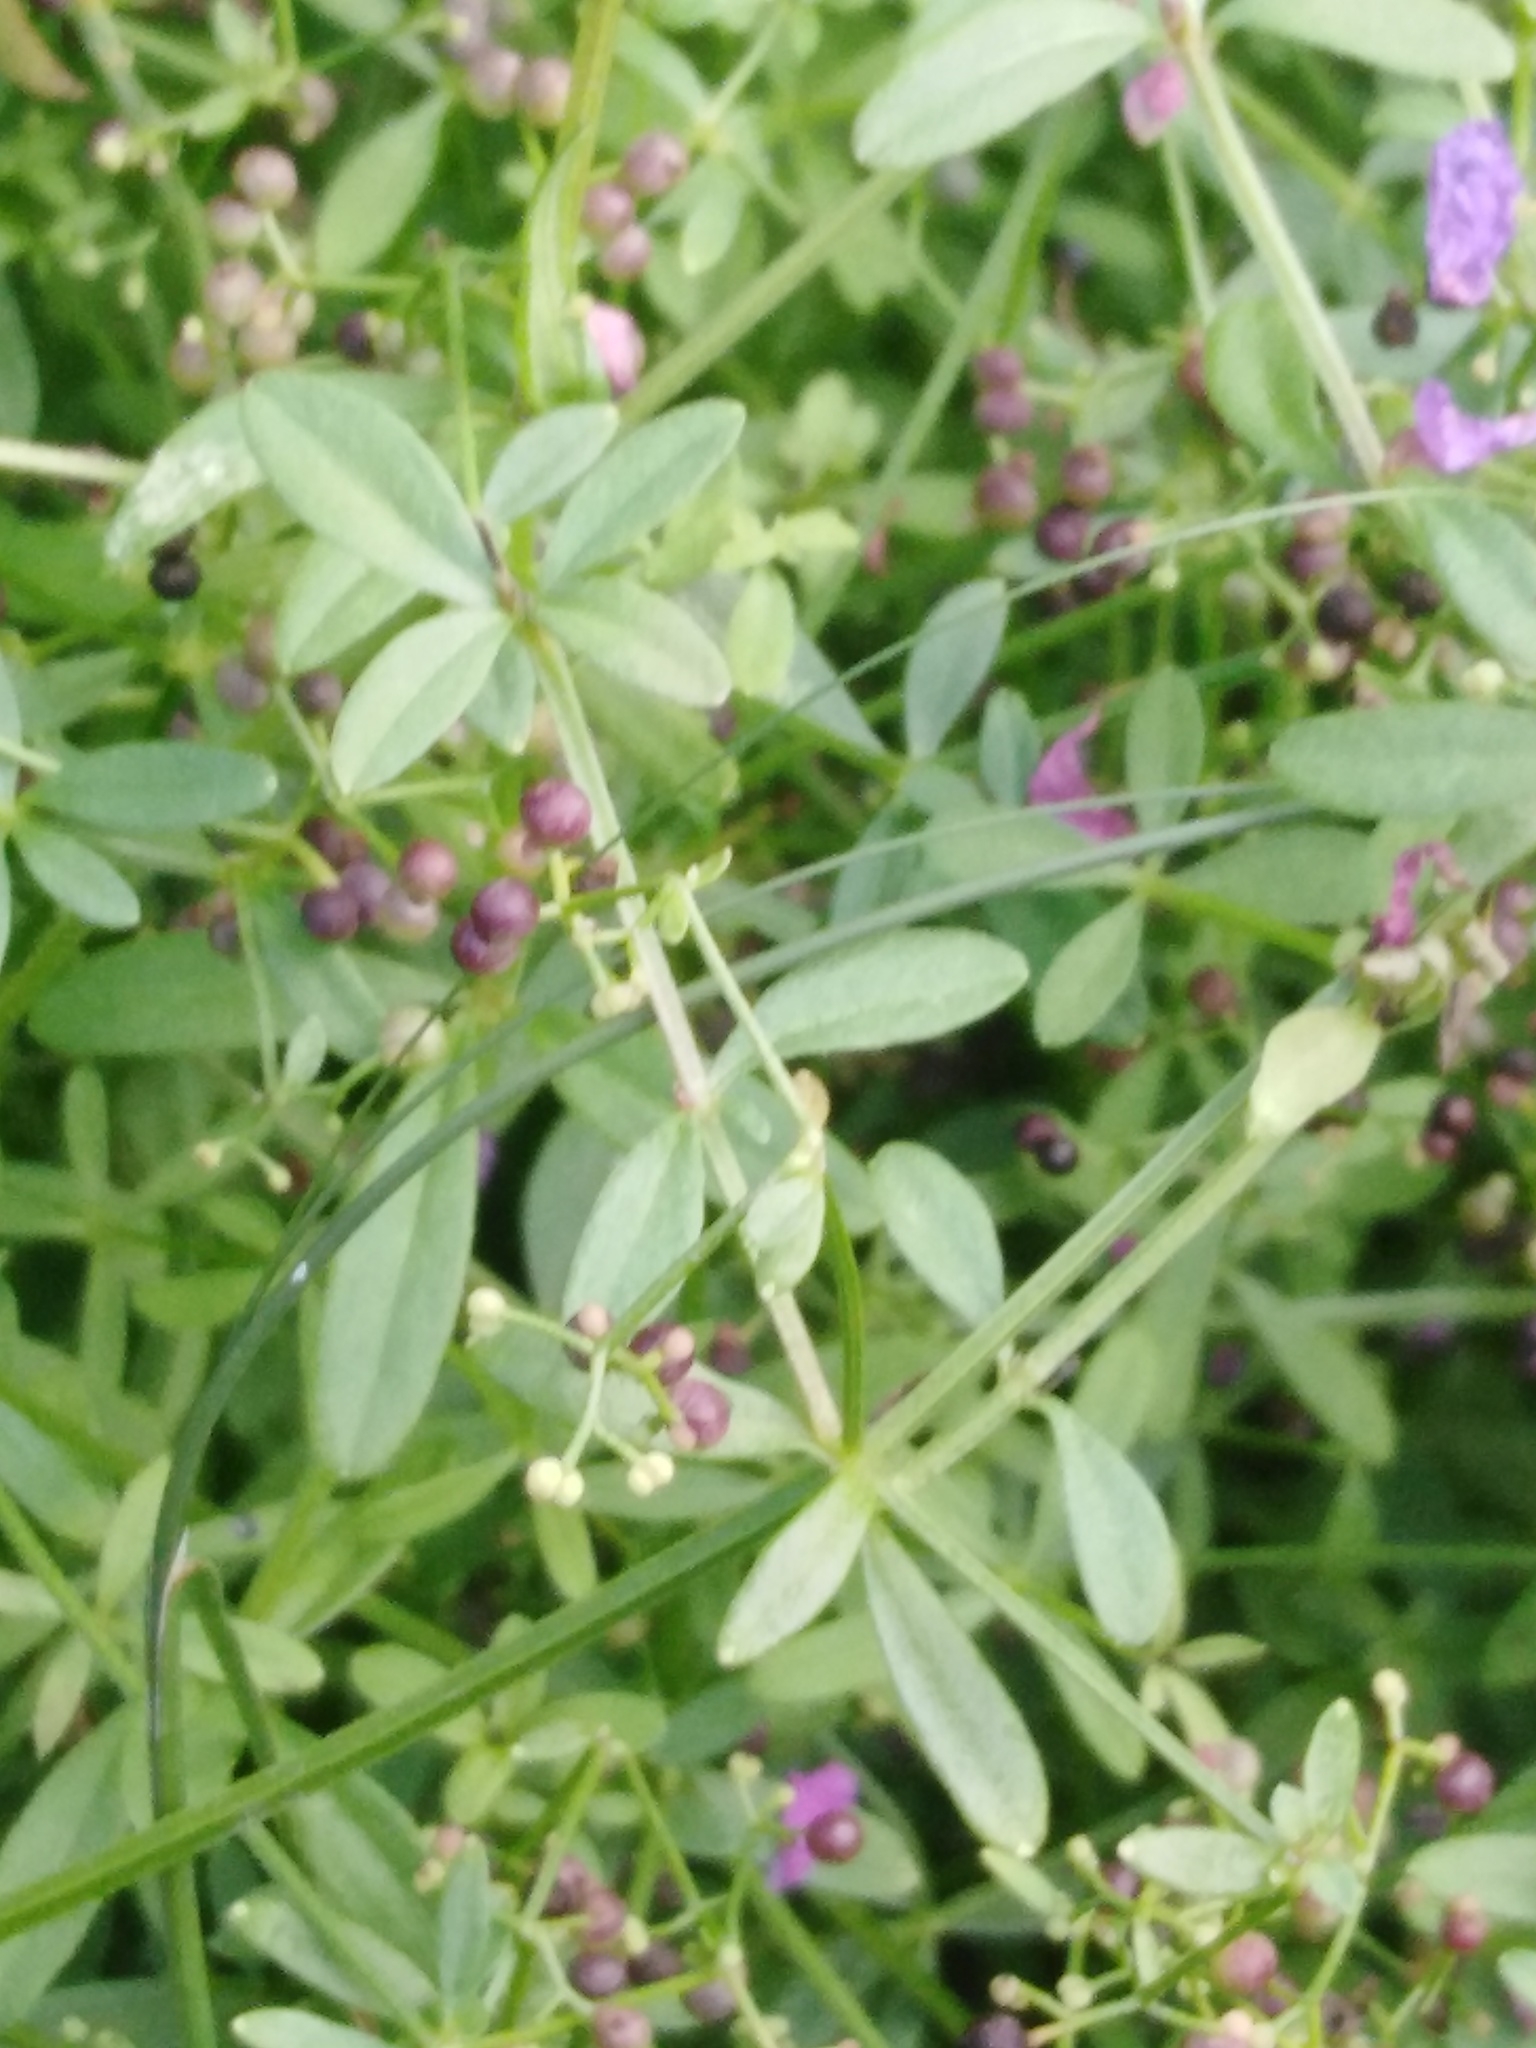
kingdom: Plantae
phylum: Tracheophyta
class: Magnoliopsida
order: Gentianales
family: Rubiaceae
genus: Galium
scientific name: Galium palustre
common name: Common marsh-bedstraw
